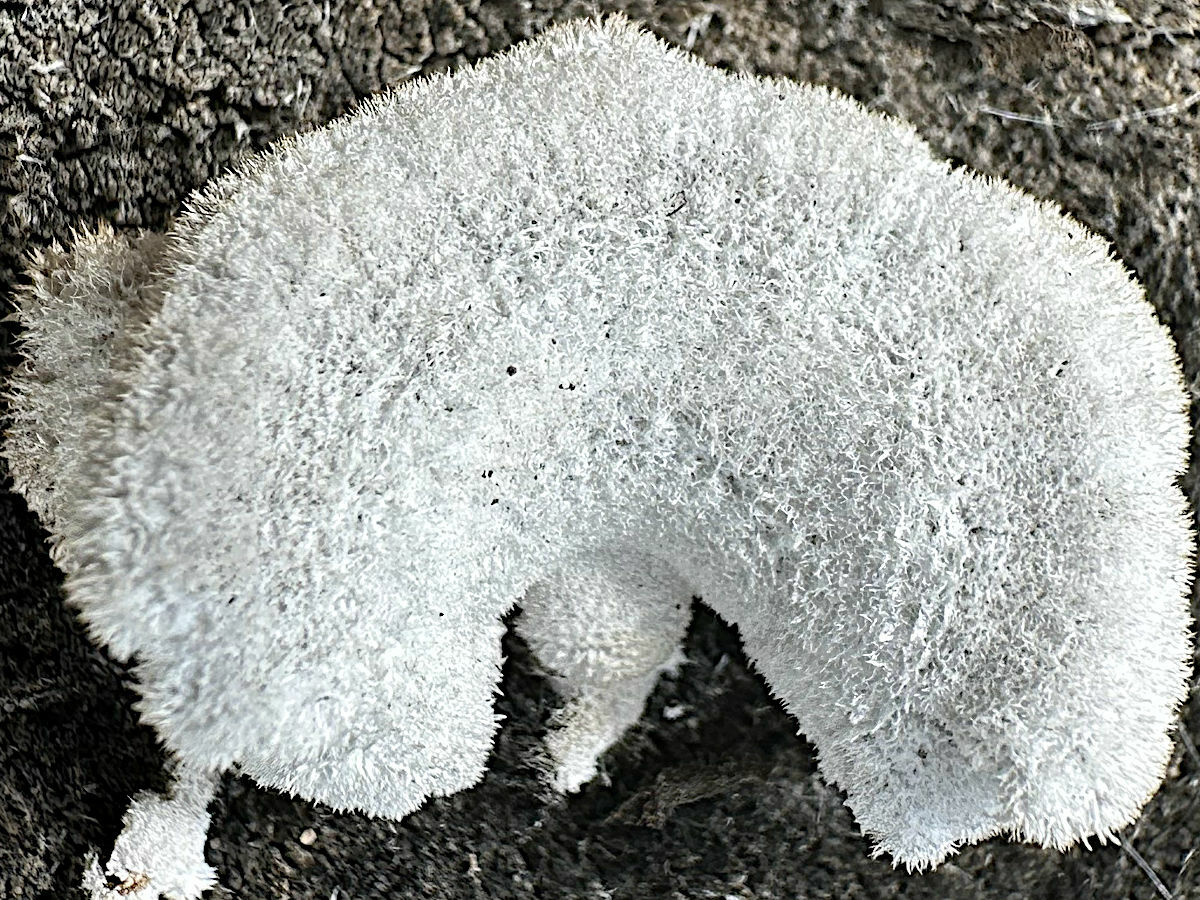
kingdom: Fungi
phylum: Basidiomycota
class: Agaricomycetes
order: Agaricales
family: Schizophyllaceae
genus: Schizophyllum
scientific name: Schizophyllum commune
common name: Common porecrust
